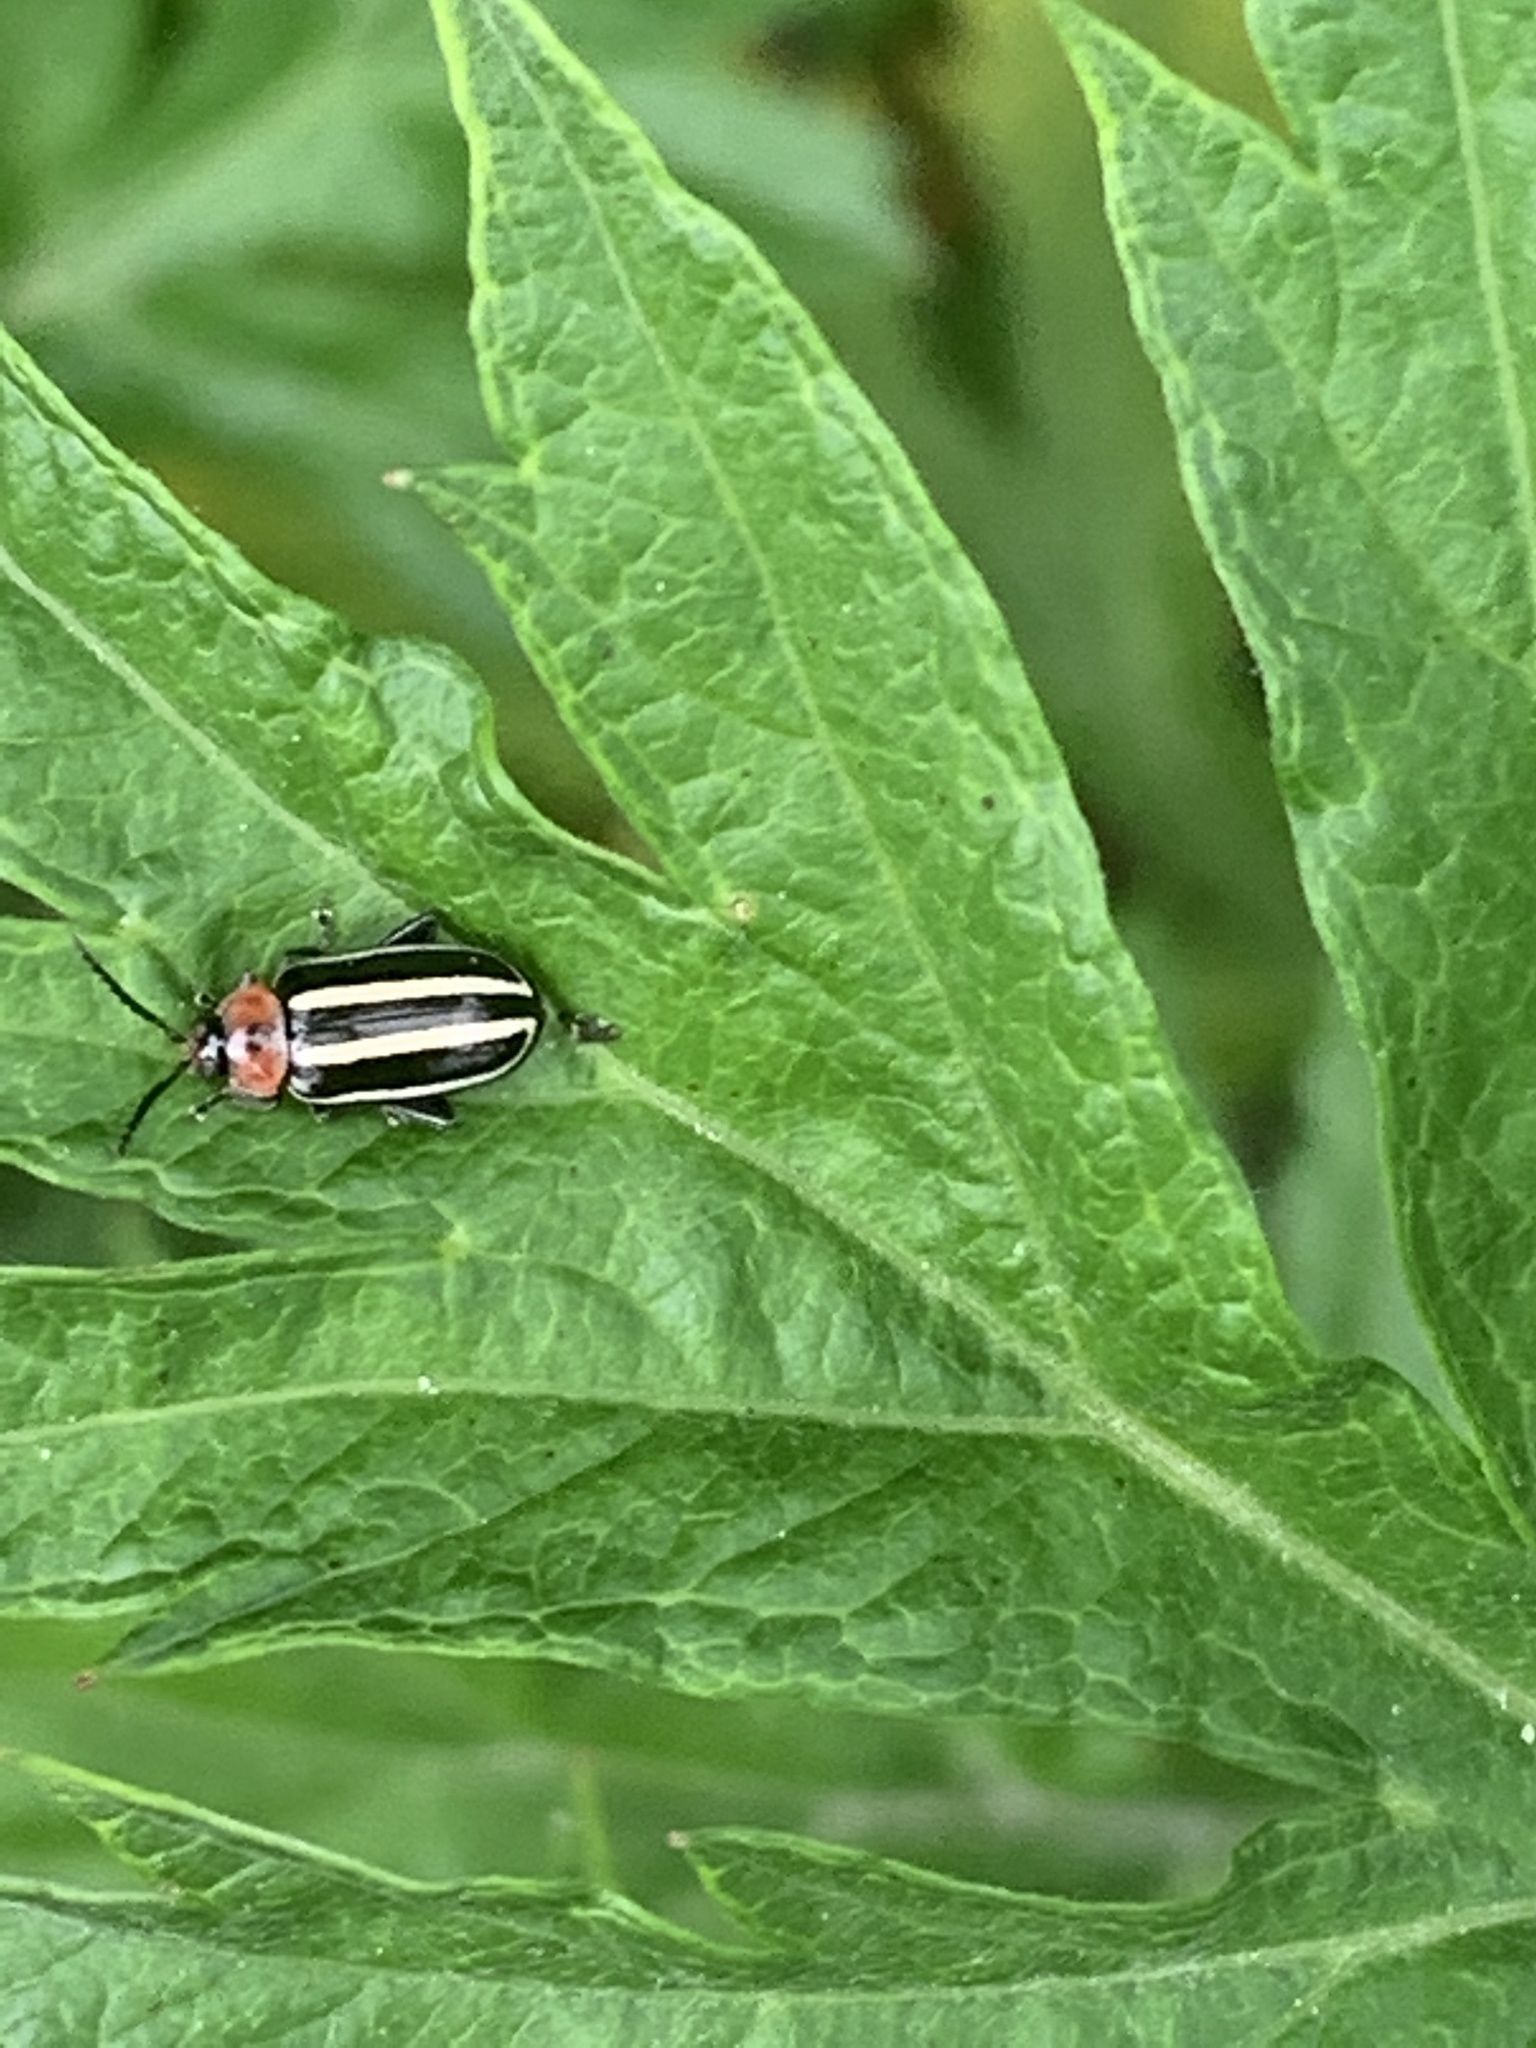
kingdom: Animalia
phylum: Arthropoda
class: Insecta
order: Coleoptera
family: Chrysomelidae
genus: Disonycha
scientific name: Disonycha glabrata
